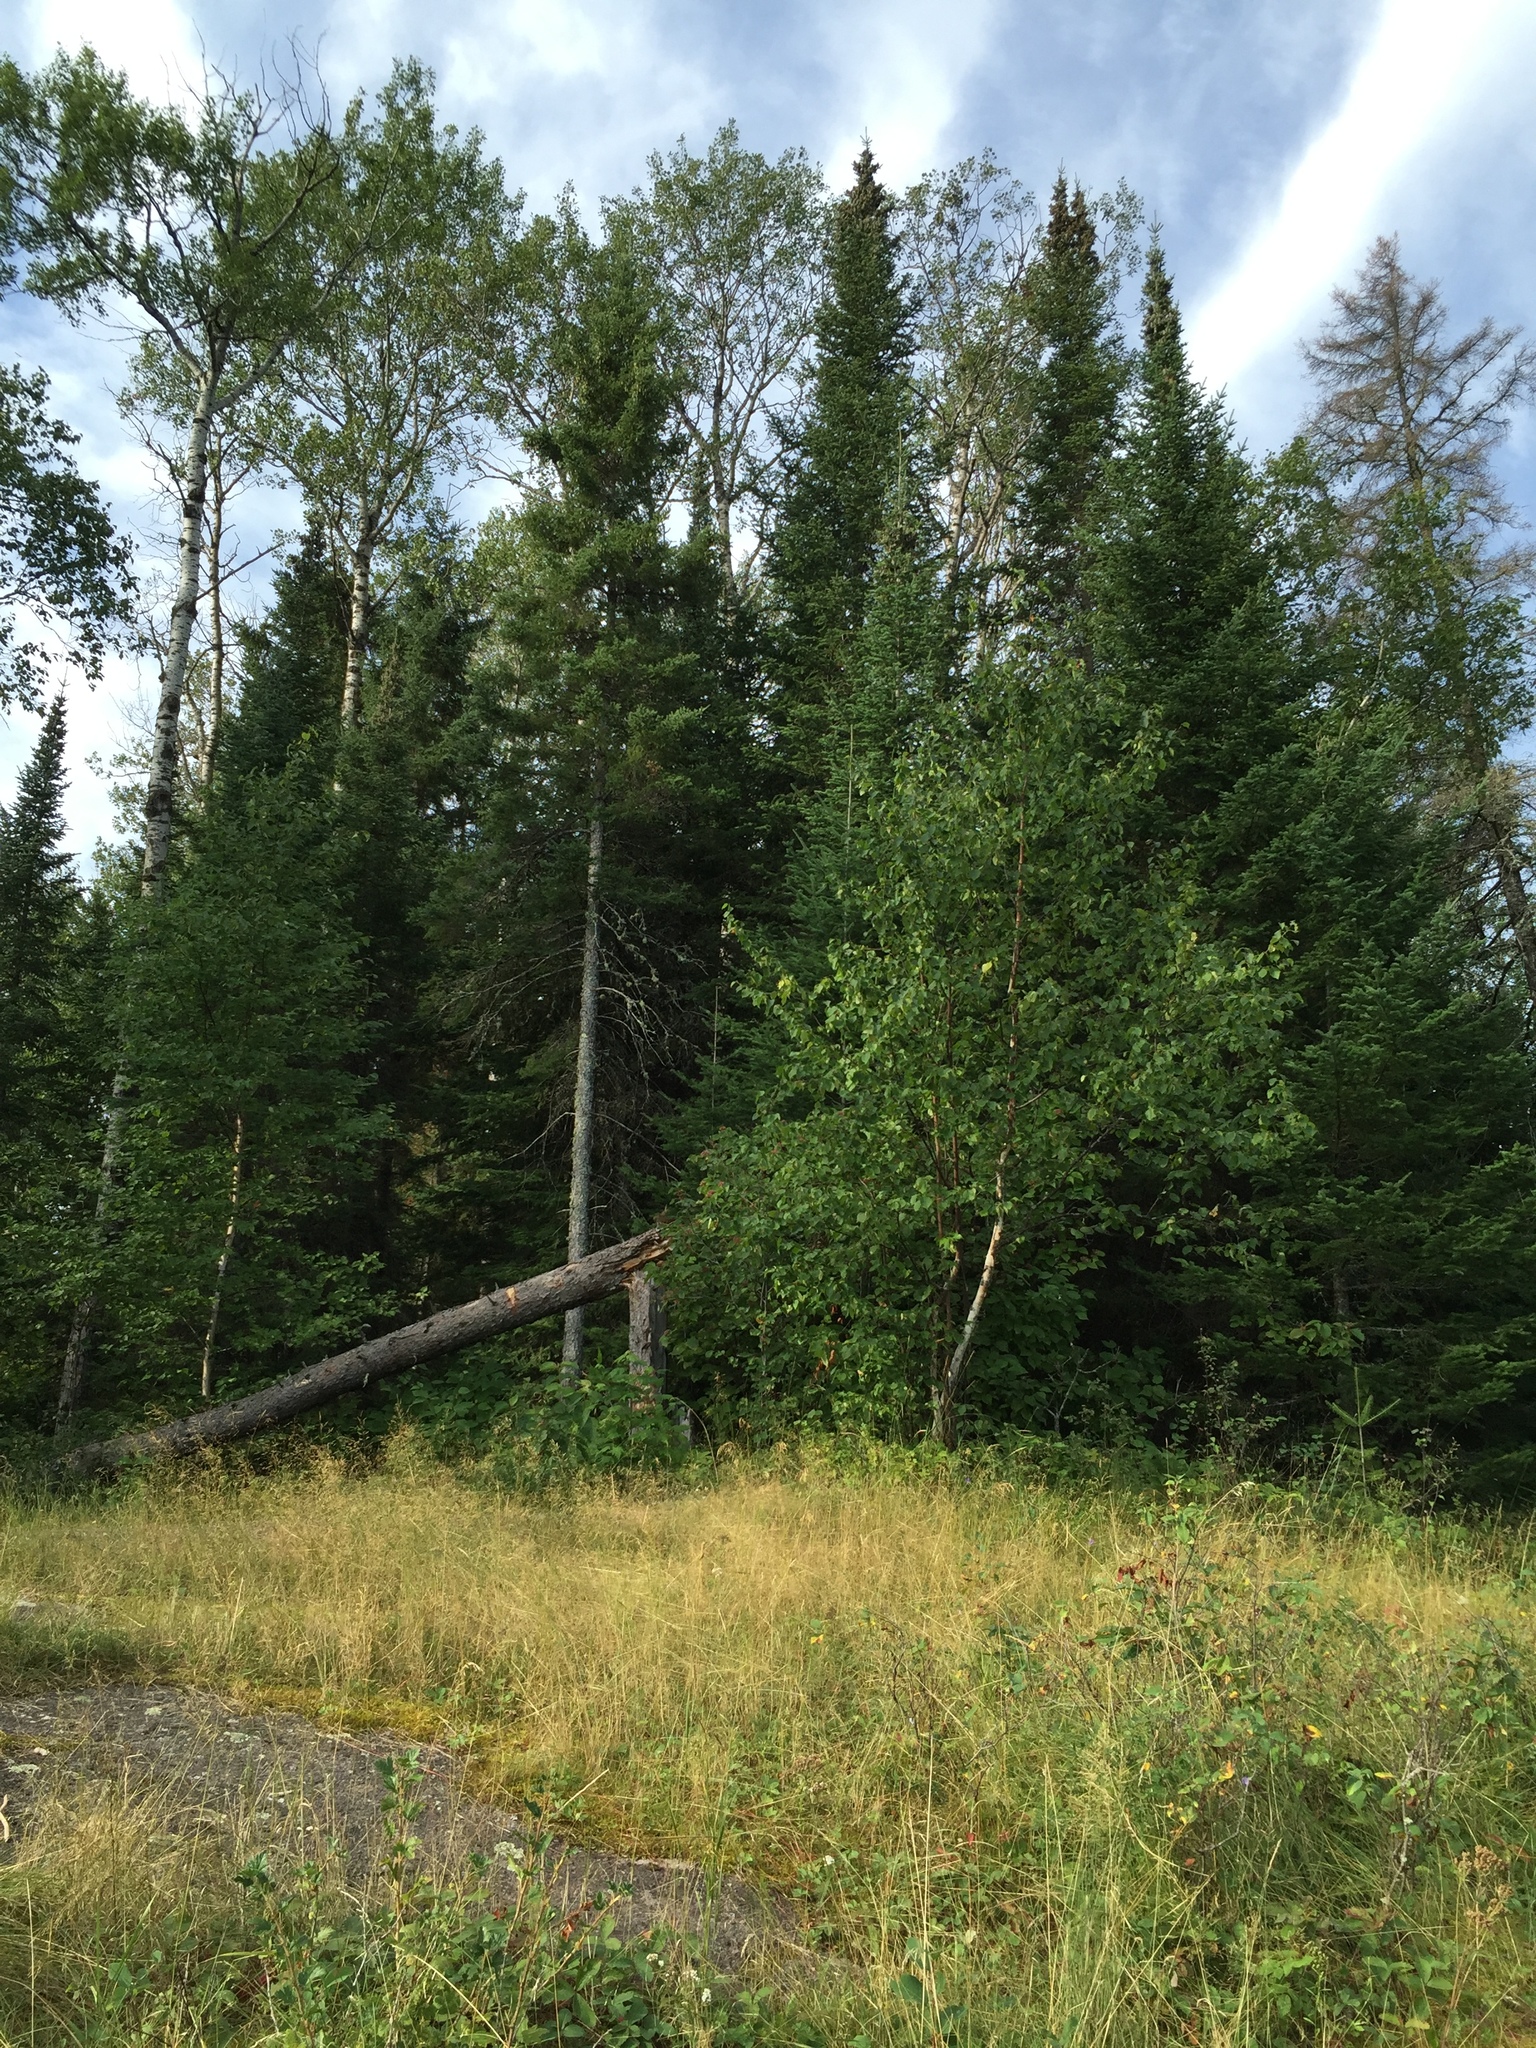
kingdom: Plantae
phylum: Tracheophyta
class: Pinopsida
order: Pinales
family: Pinaceae
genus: Picea
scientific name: Picea glauca
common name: White spruce
